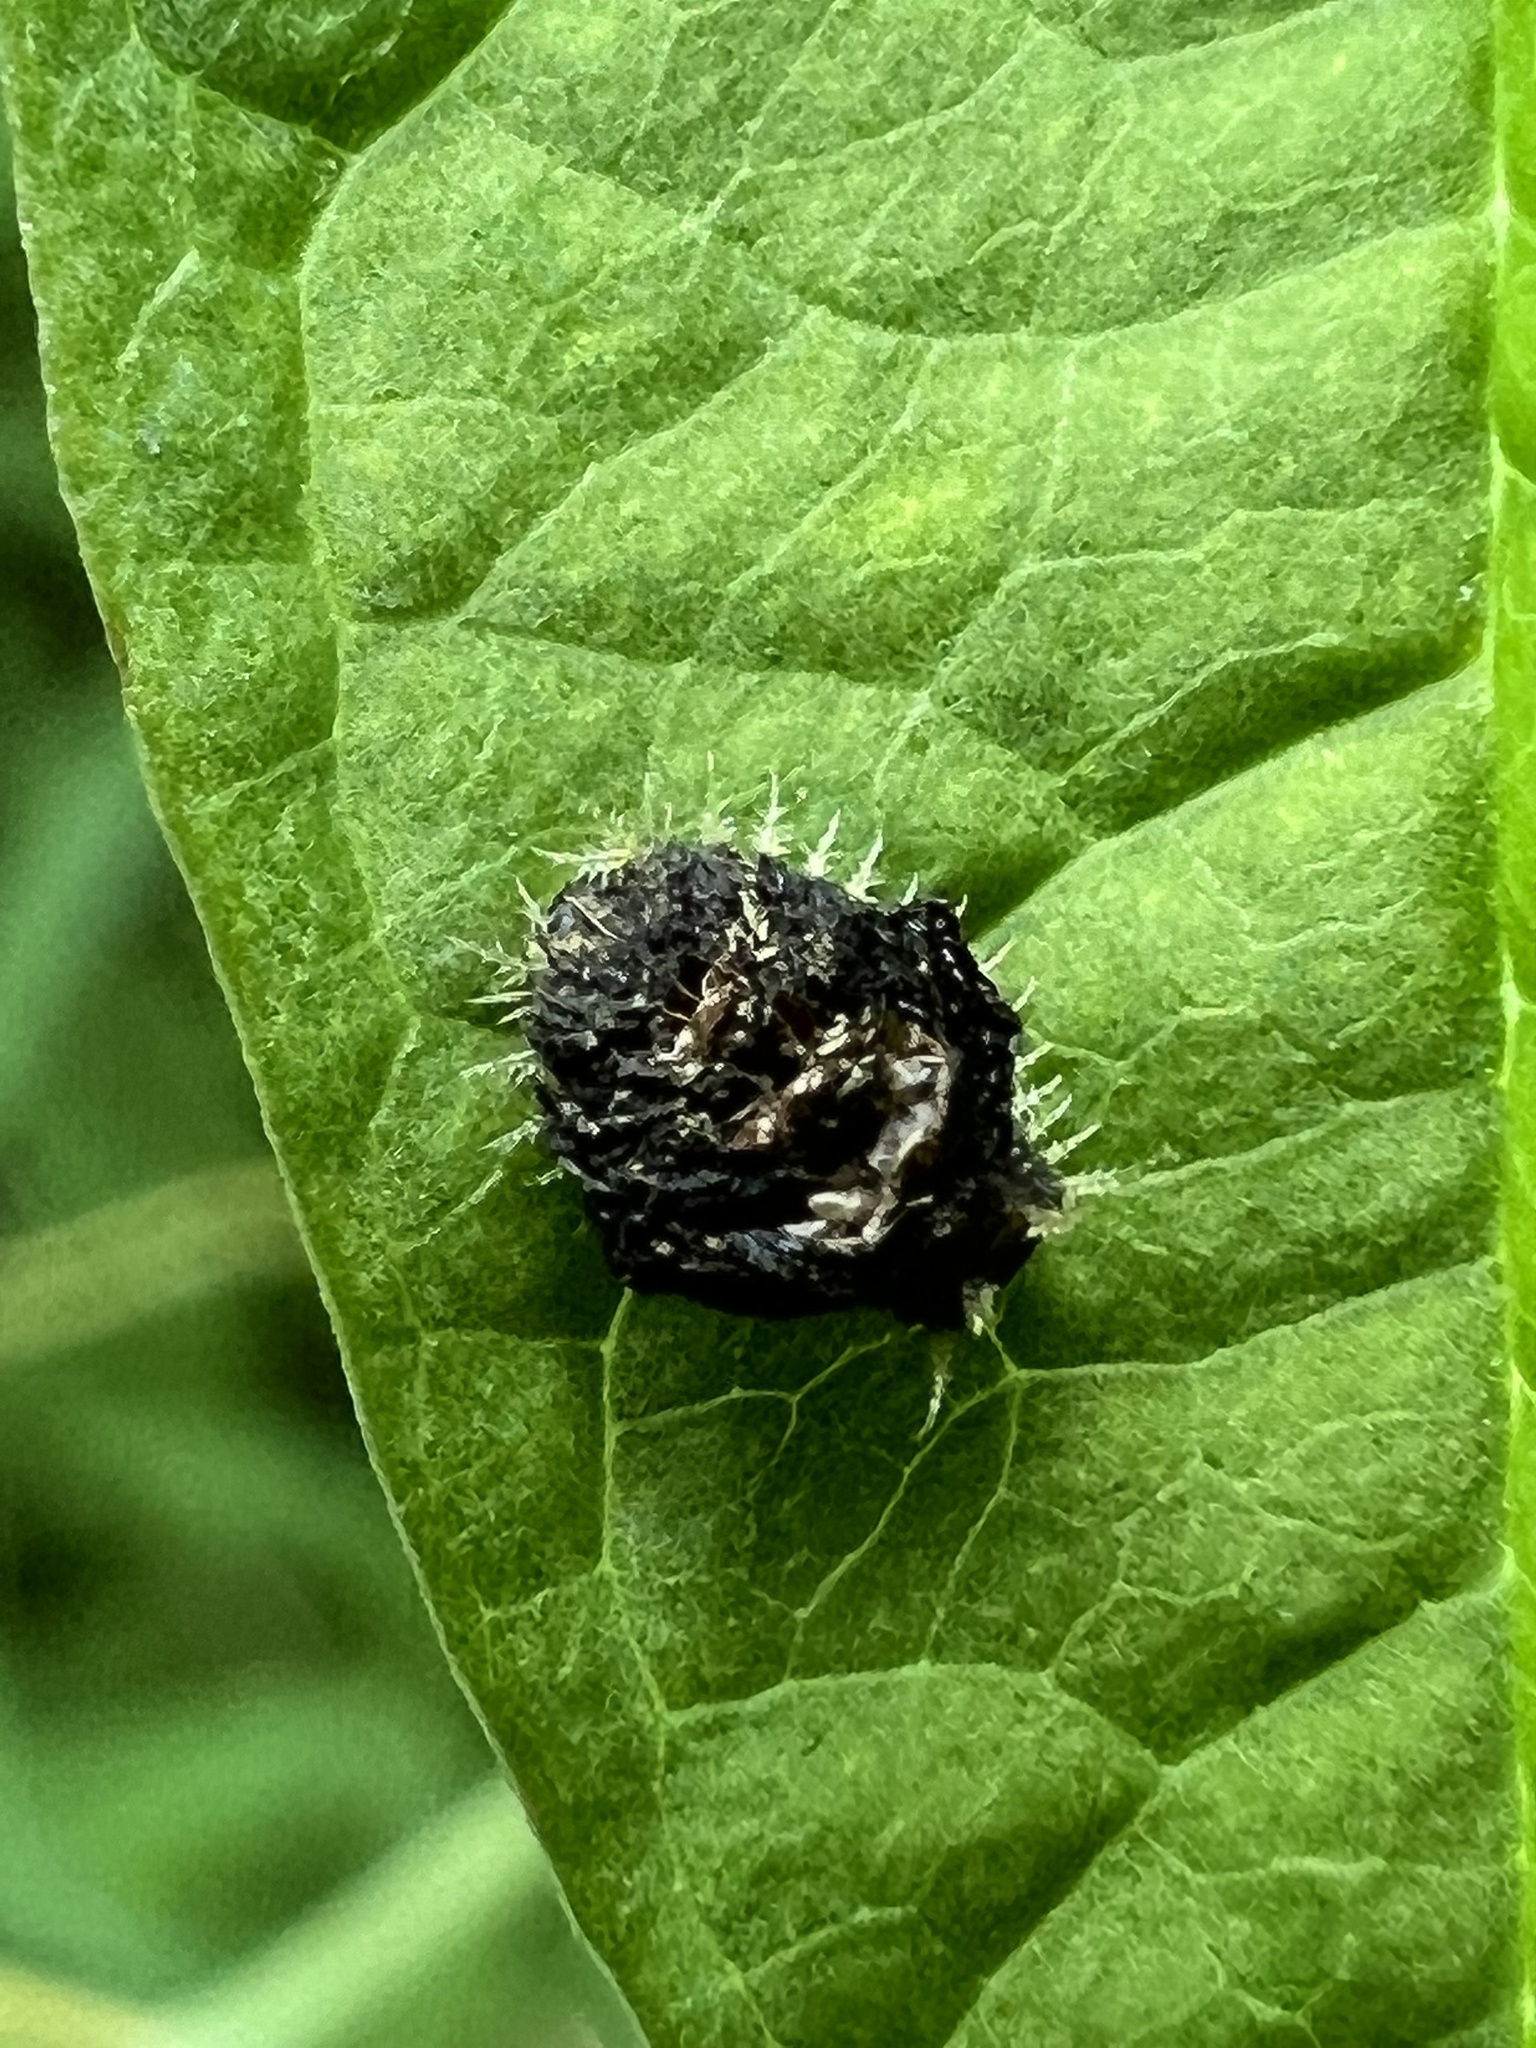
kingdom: Animalia
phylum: Arthropoda
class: Insecta
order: Coleoptera
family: Chrysomelidae
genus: Charidotella
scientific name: Charidotella sexpunctata
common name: Golden tortoise beetle
